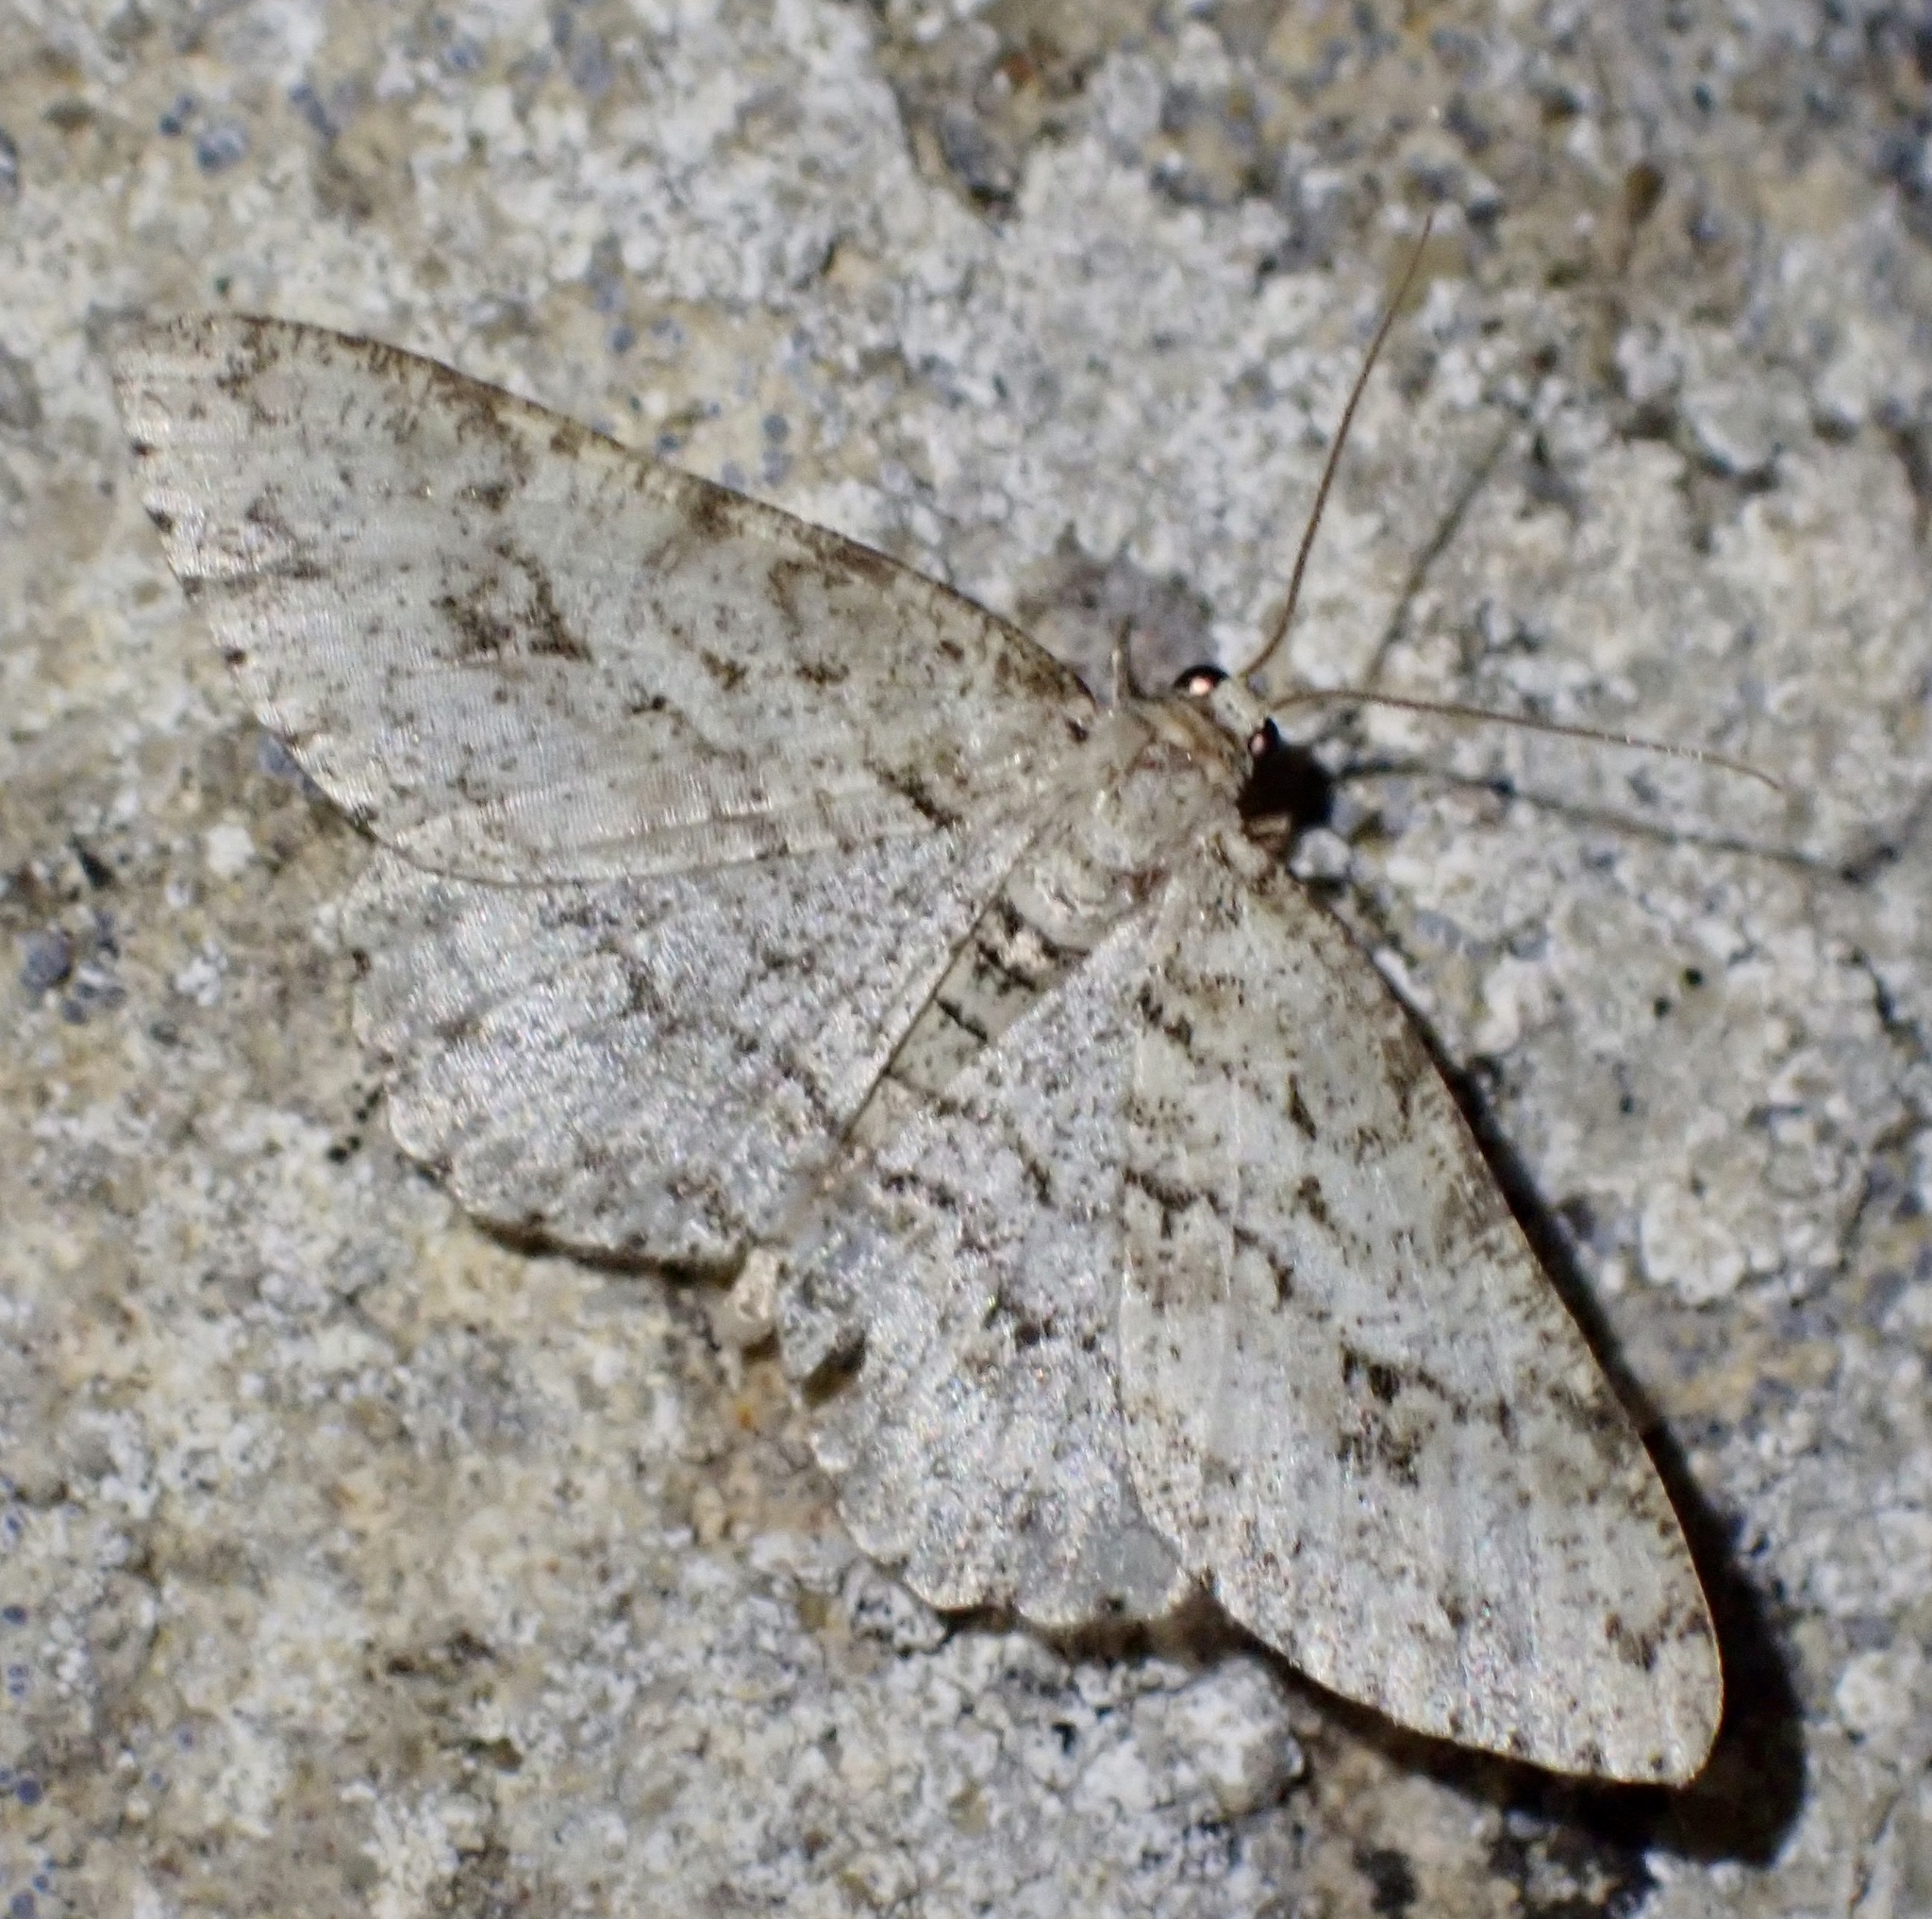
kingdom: Animalia
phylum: Arthropoda
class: Insecta
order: Lepidoptera
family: Geometridae
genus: Ectropis
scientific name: Ectropis crepuscularia
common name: Engrailed
